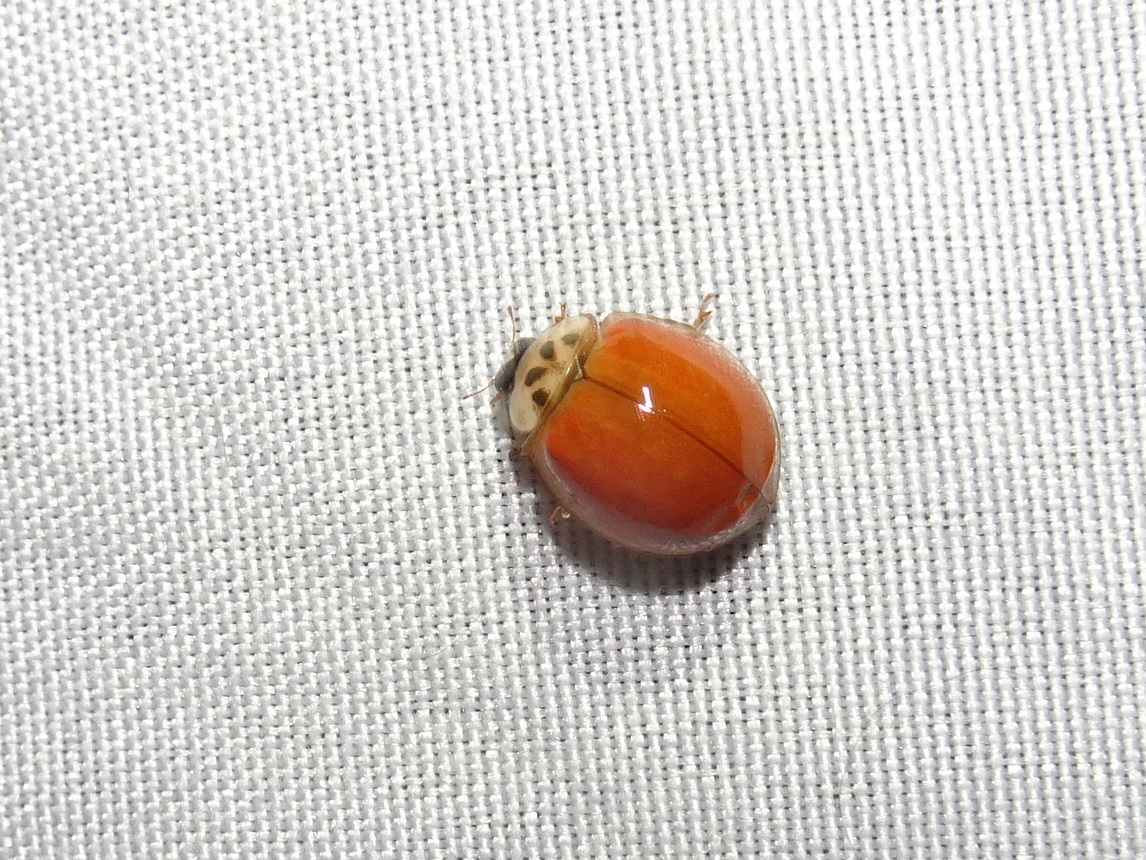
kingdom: Animalia
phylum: Arthropoda
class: Insecta
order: Coleoptera
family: Coccinellidae
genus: Harmonia
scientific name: Harmonia axyridis
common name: Harlequin ladybird
